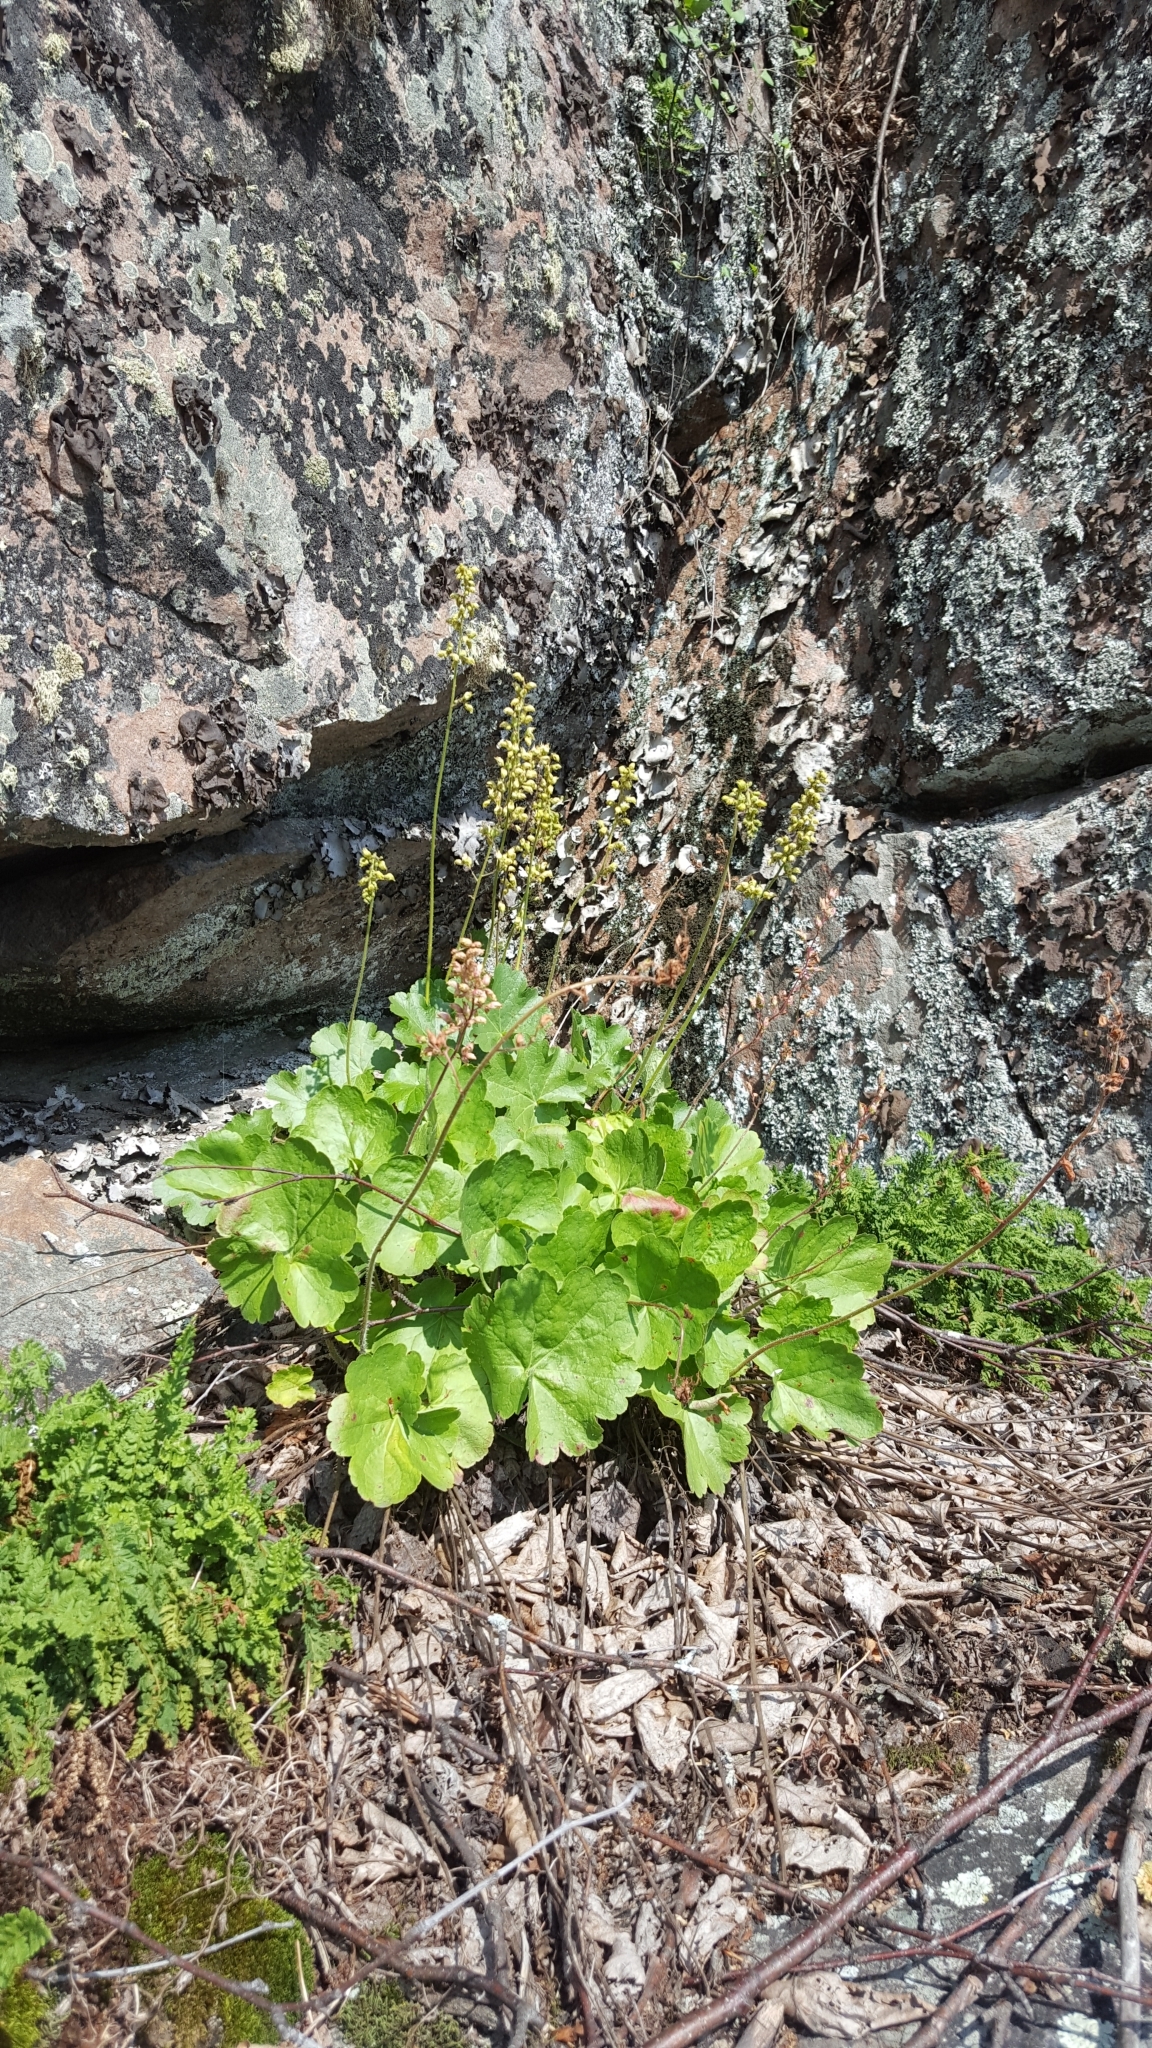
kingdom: Plantae
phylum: Tracheophyta
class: Magnoliopsida
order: Saxifragales
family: Saxifragaceae
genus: Heuchera
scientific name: Heuchera richardsonii
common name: Richardson's alumroot
